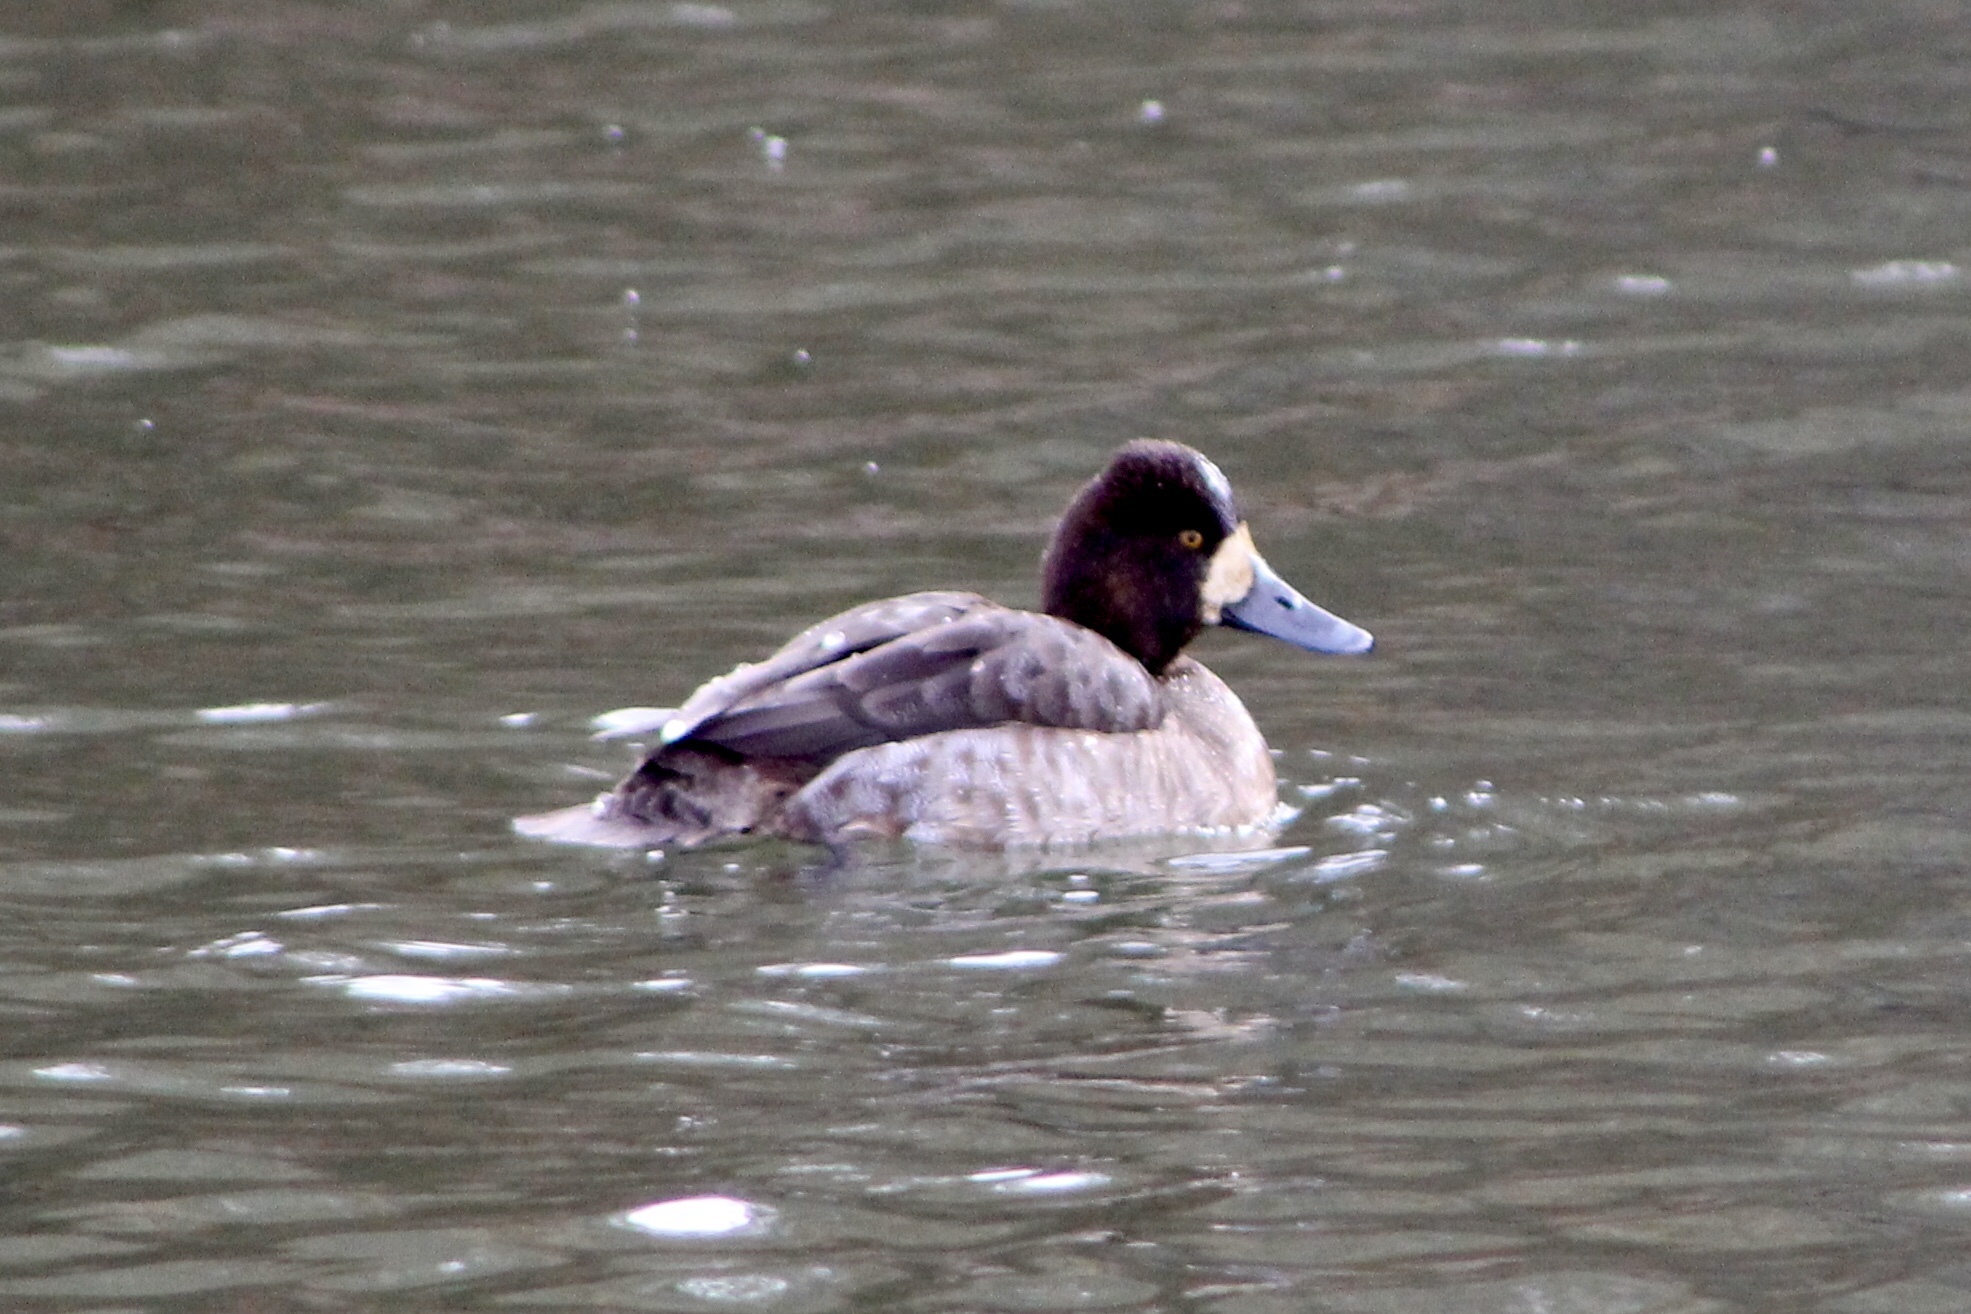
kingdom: Animalia
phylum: Chordata
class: Aves
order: Anseriformes
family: Anatidae
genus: Aythya
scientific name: Aythya affinis
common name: Lesser scaup
